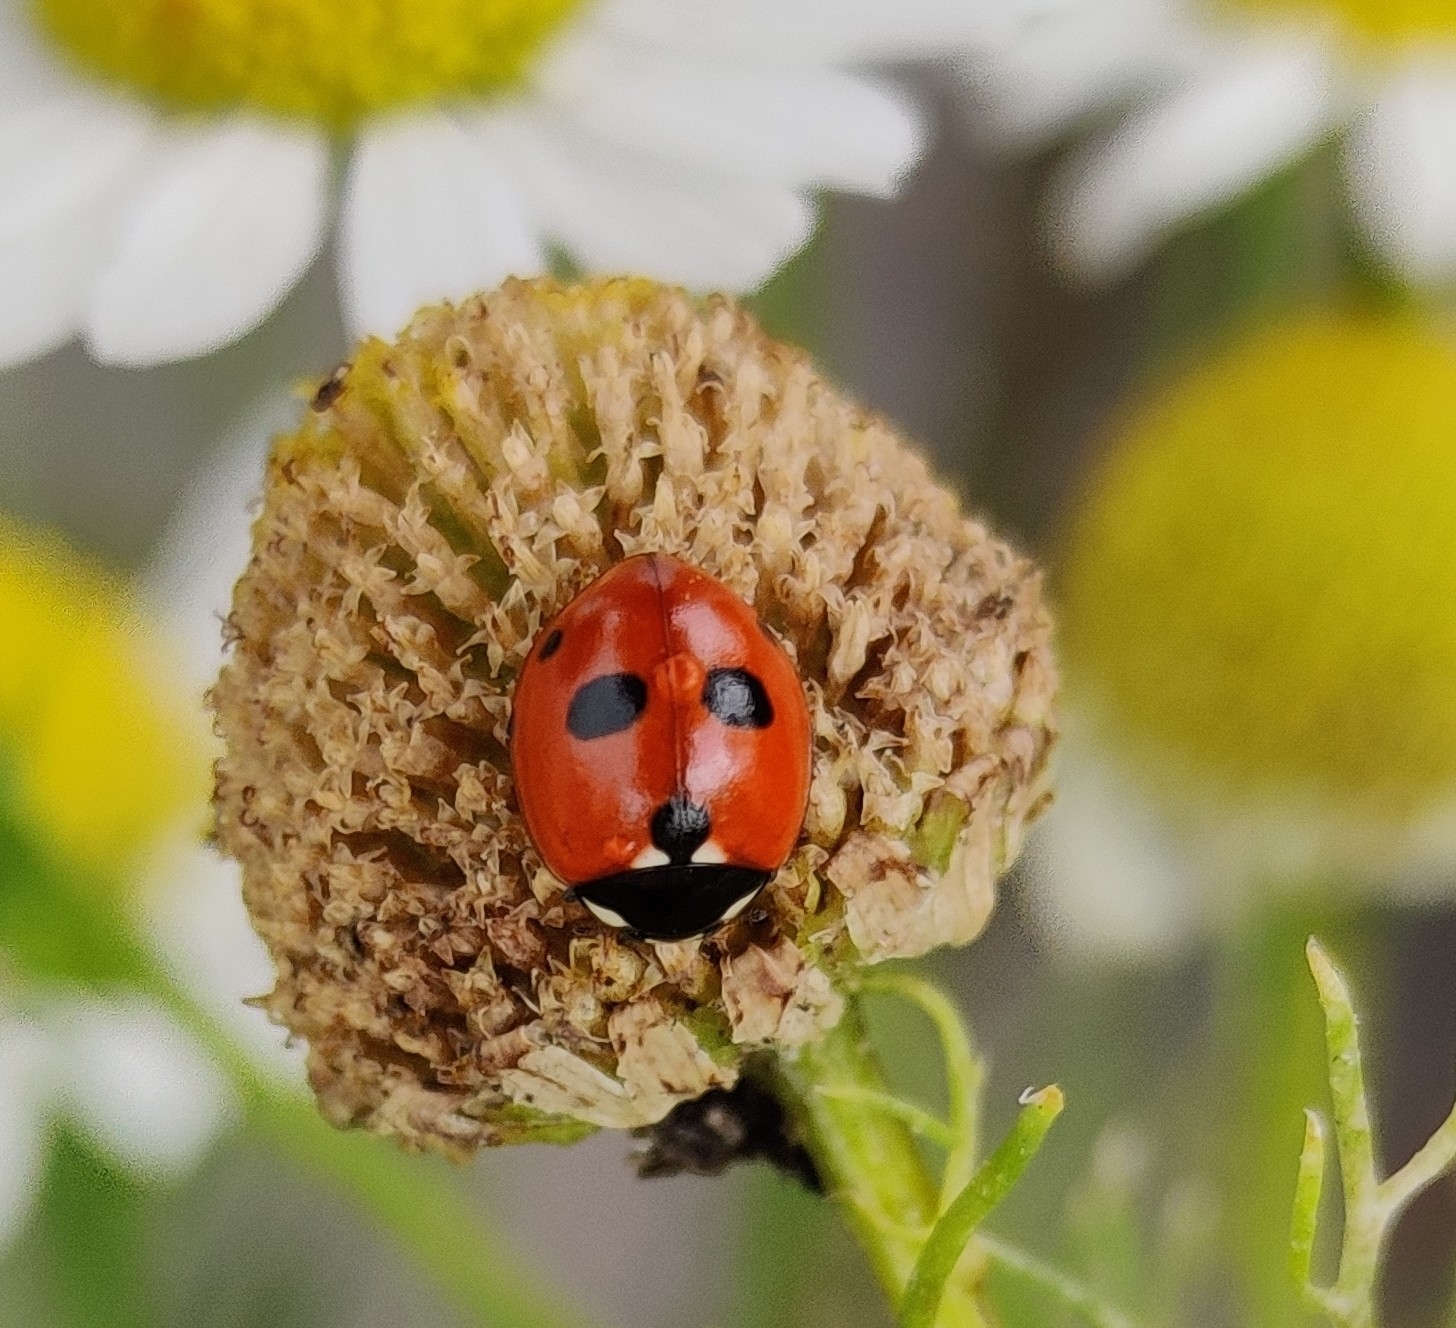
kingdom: Animalia
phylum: Arthropoda
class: Insecta
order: Coleoptera
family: Coccinellidae
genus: Coccinella
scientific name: Coccinella quinquepunctata
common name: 5-spot ladybird
